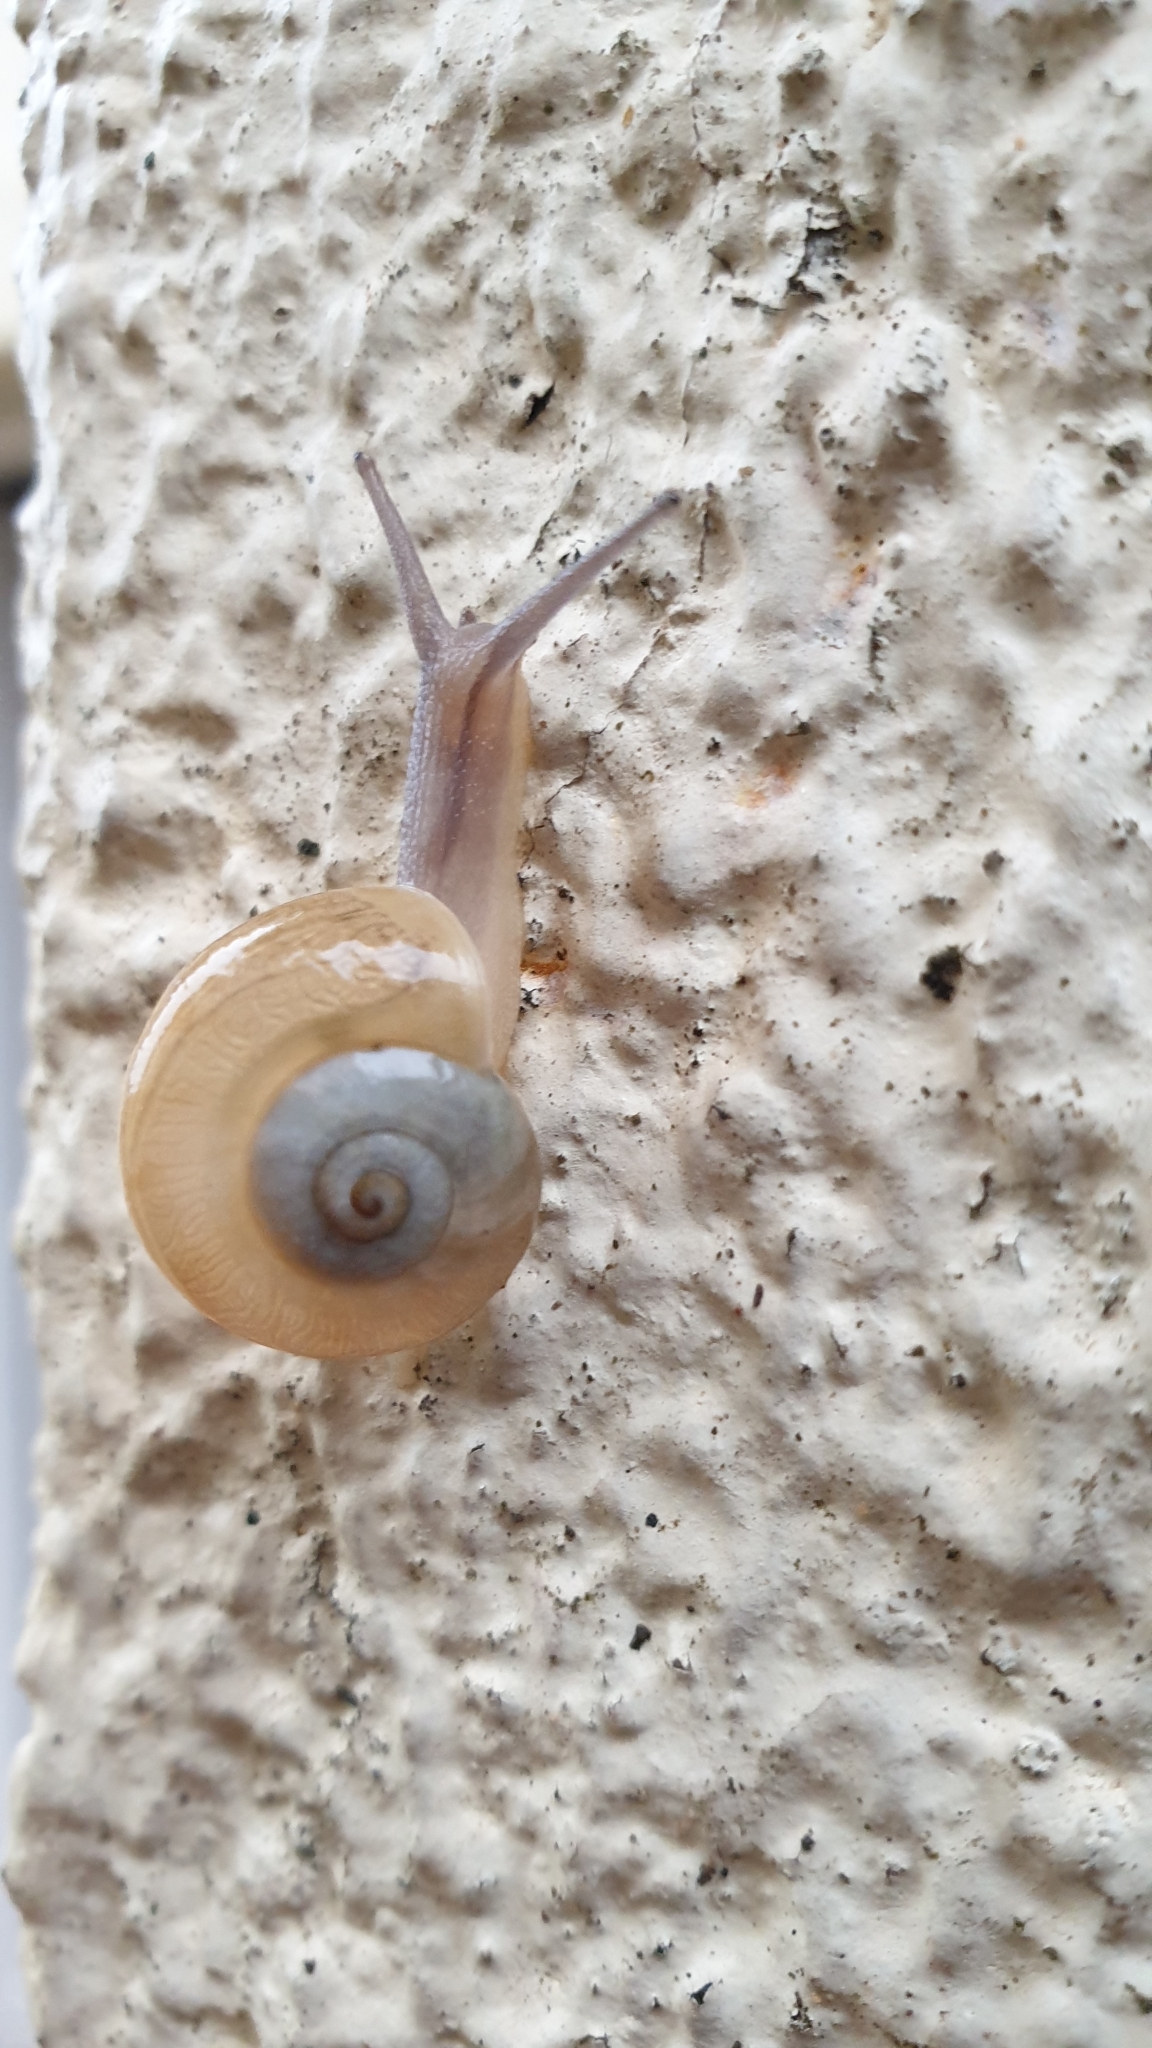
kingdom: Animalia
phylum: Mollusca
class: Gastropoda
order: Stylommatophora
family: Helicidae
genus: Pseudotachea
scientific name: Pseudotachea splendida
